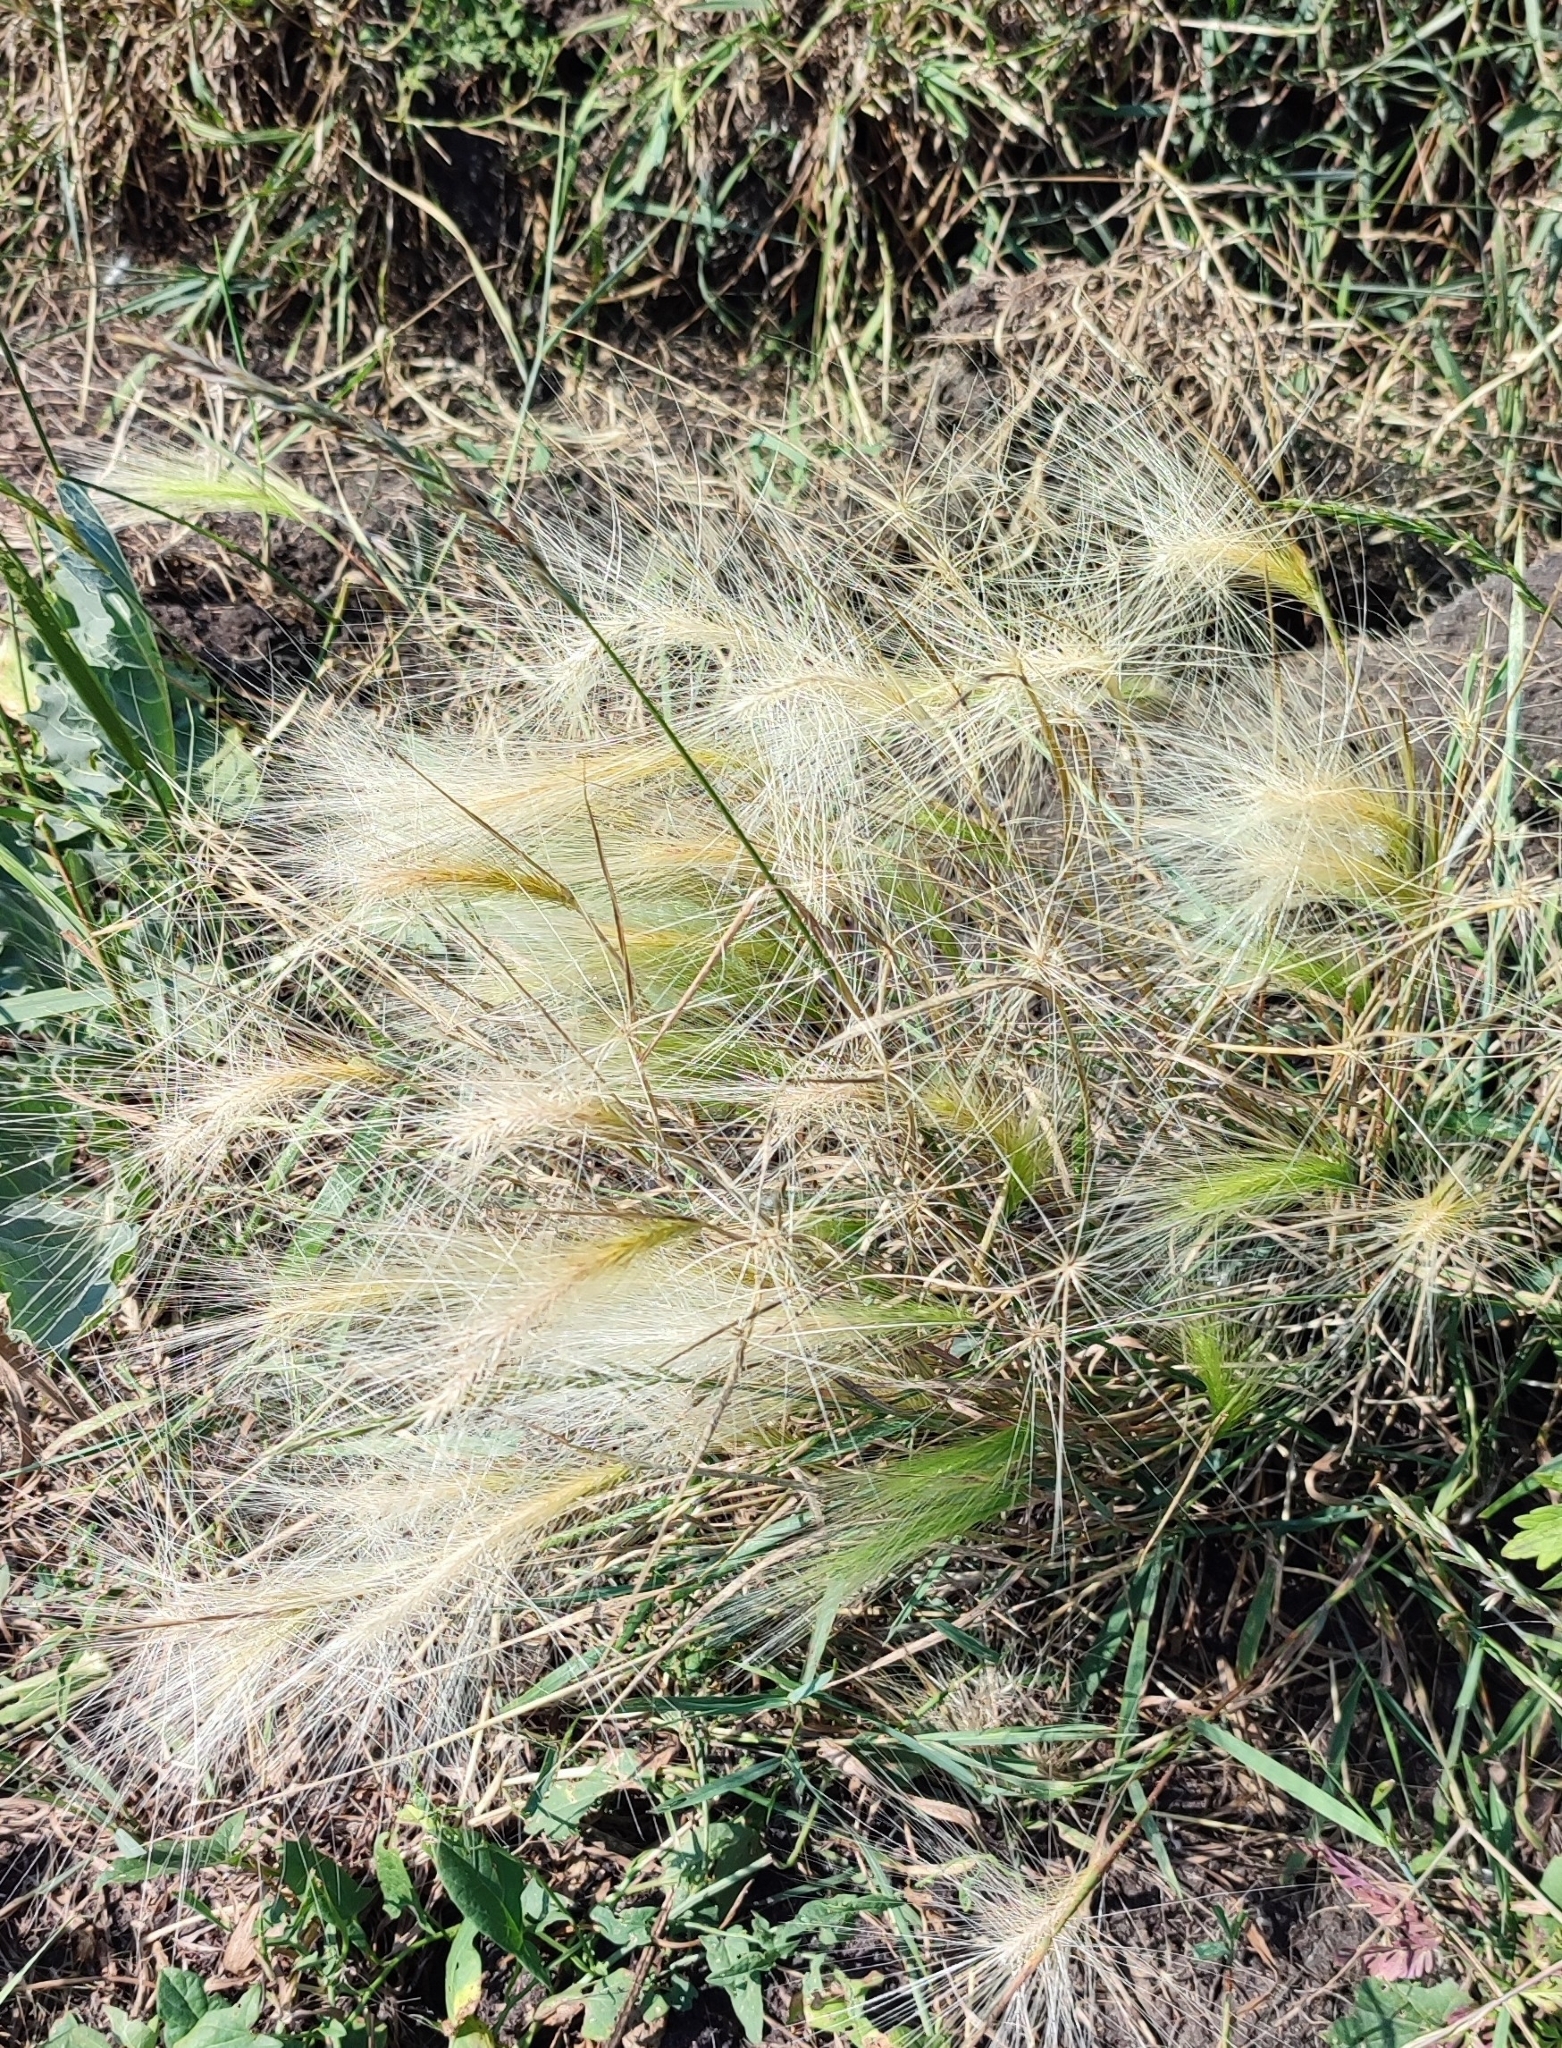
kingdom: Plantae
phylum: Tracheophyta
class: Liliopsida
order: Poales
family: Poaceae
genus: Hordeum
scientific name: Hordeum jubatum
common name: Foxtail barley
